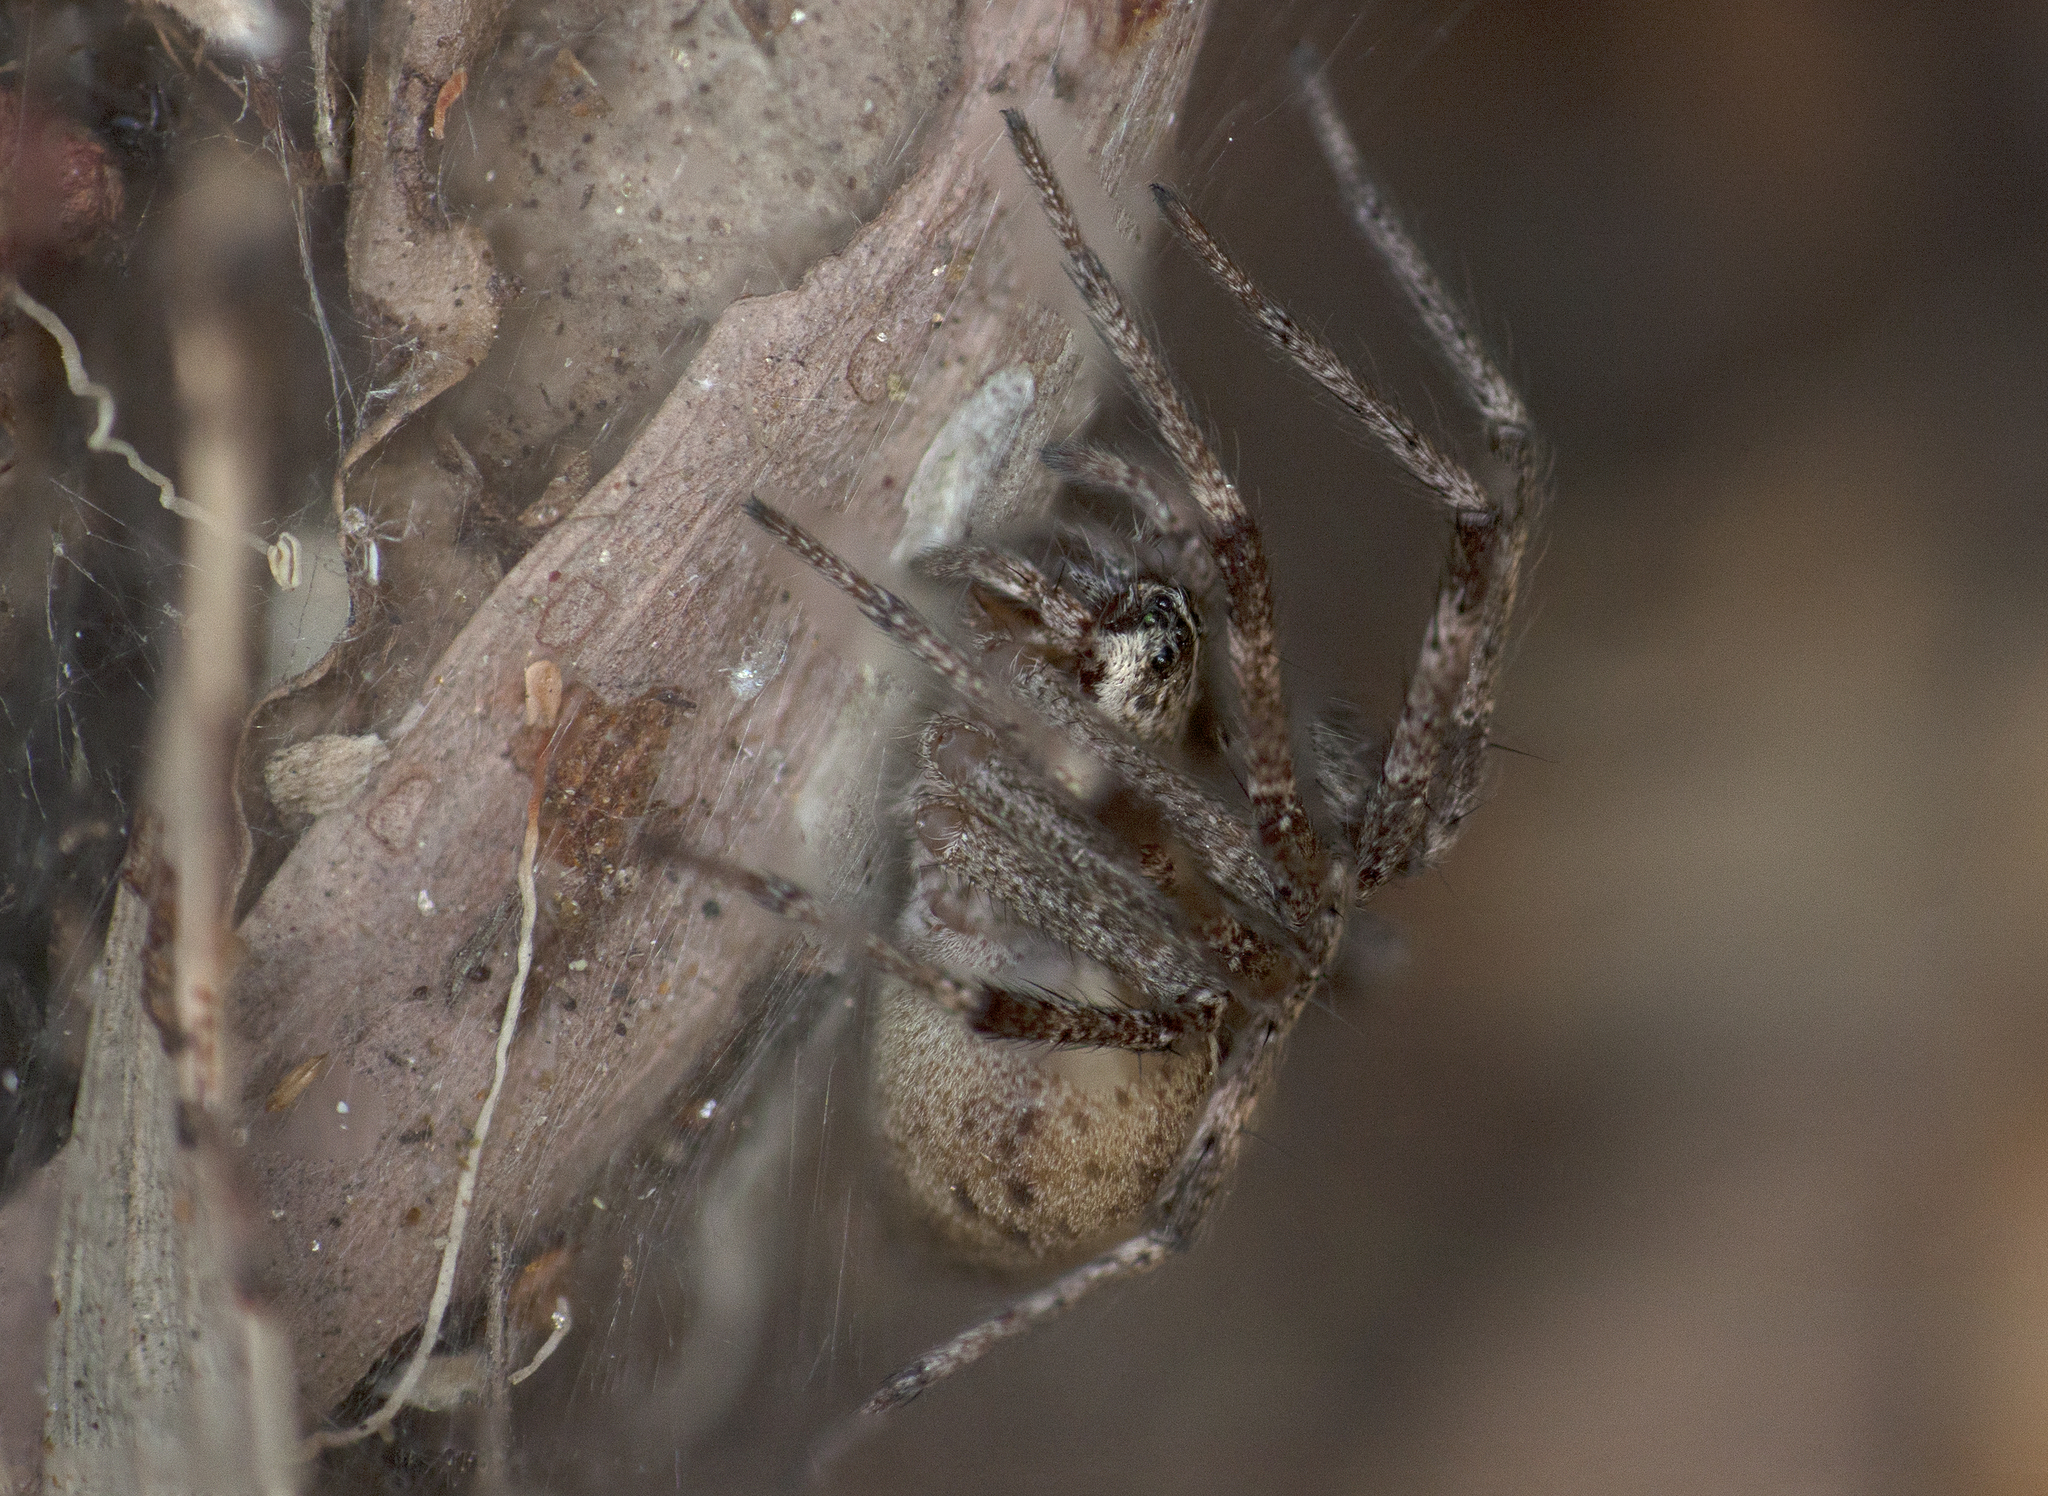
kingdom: Animalia
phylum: Arthropoda
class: Arachnida
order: Araneae
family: Pisauridae
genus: Dendrolycosa
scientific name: Dendrolycosa icadia
